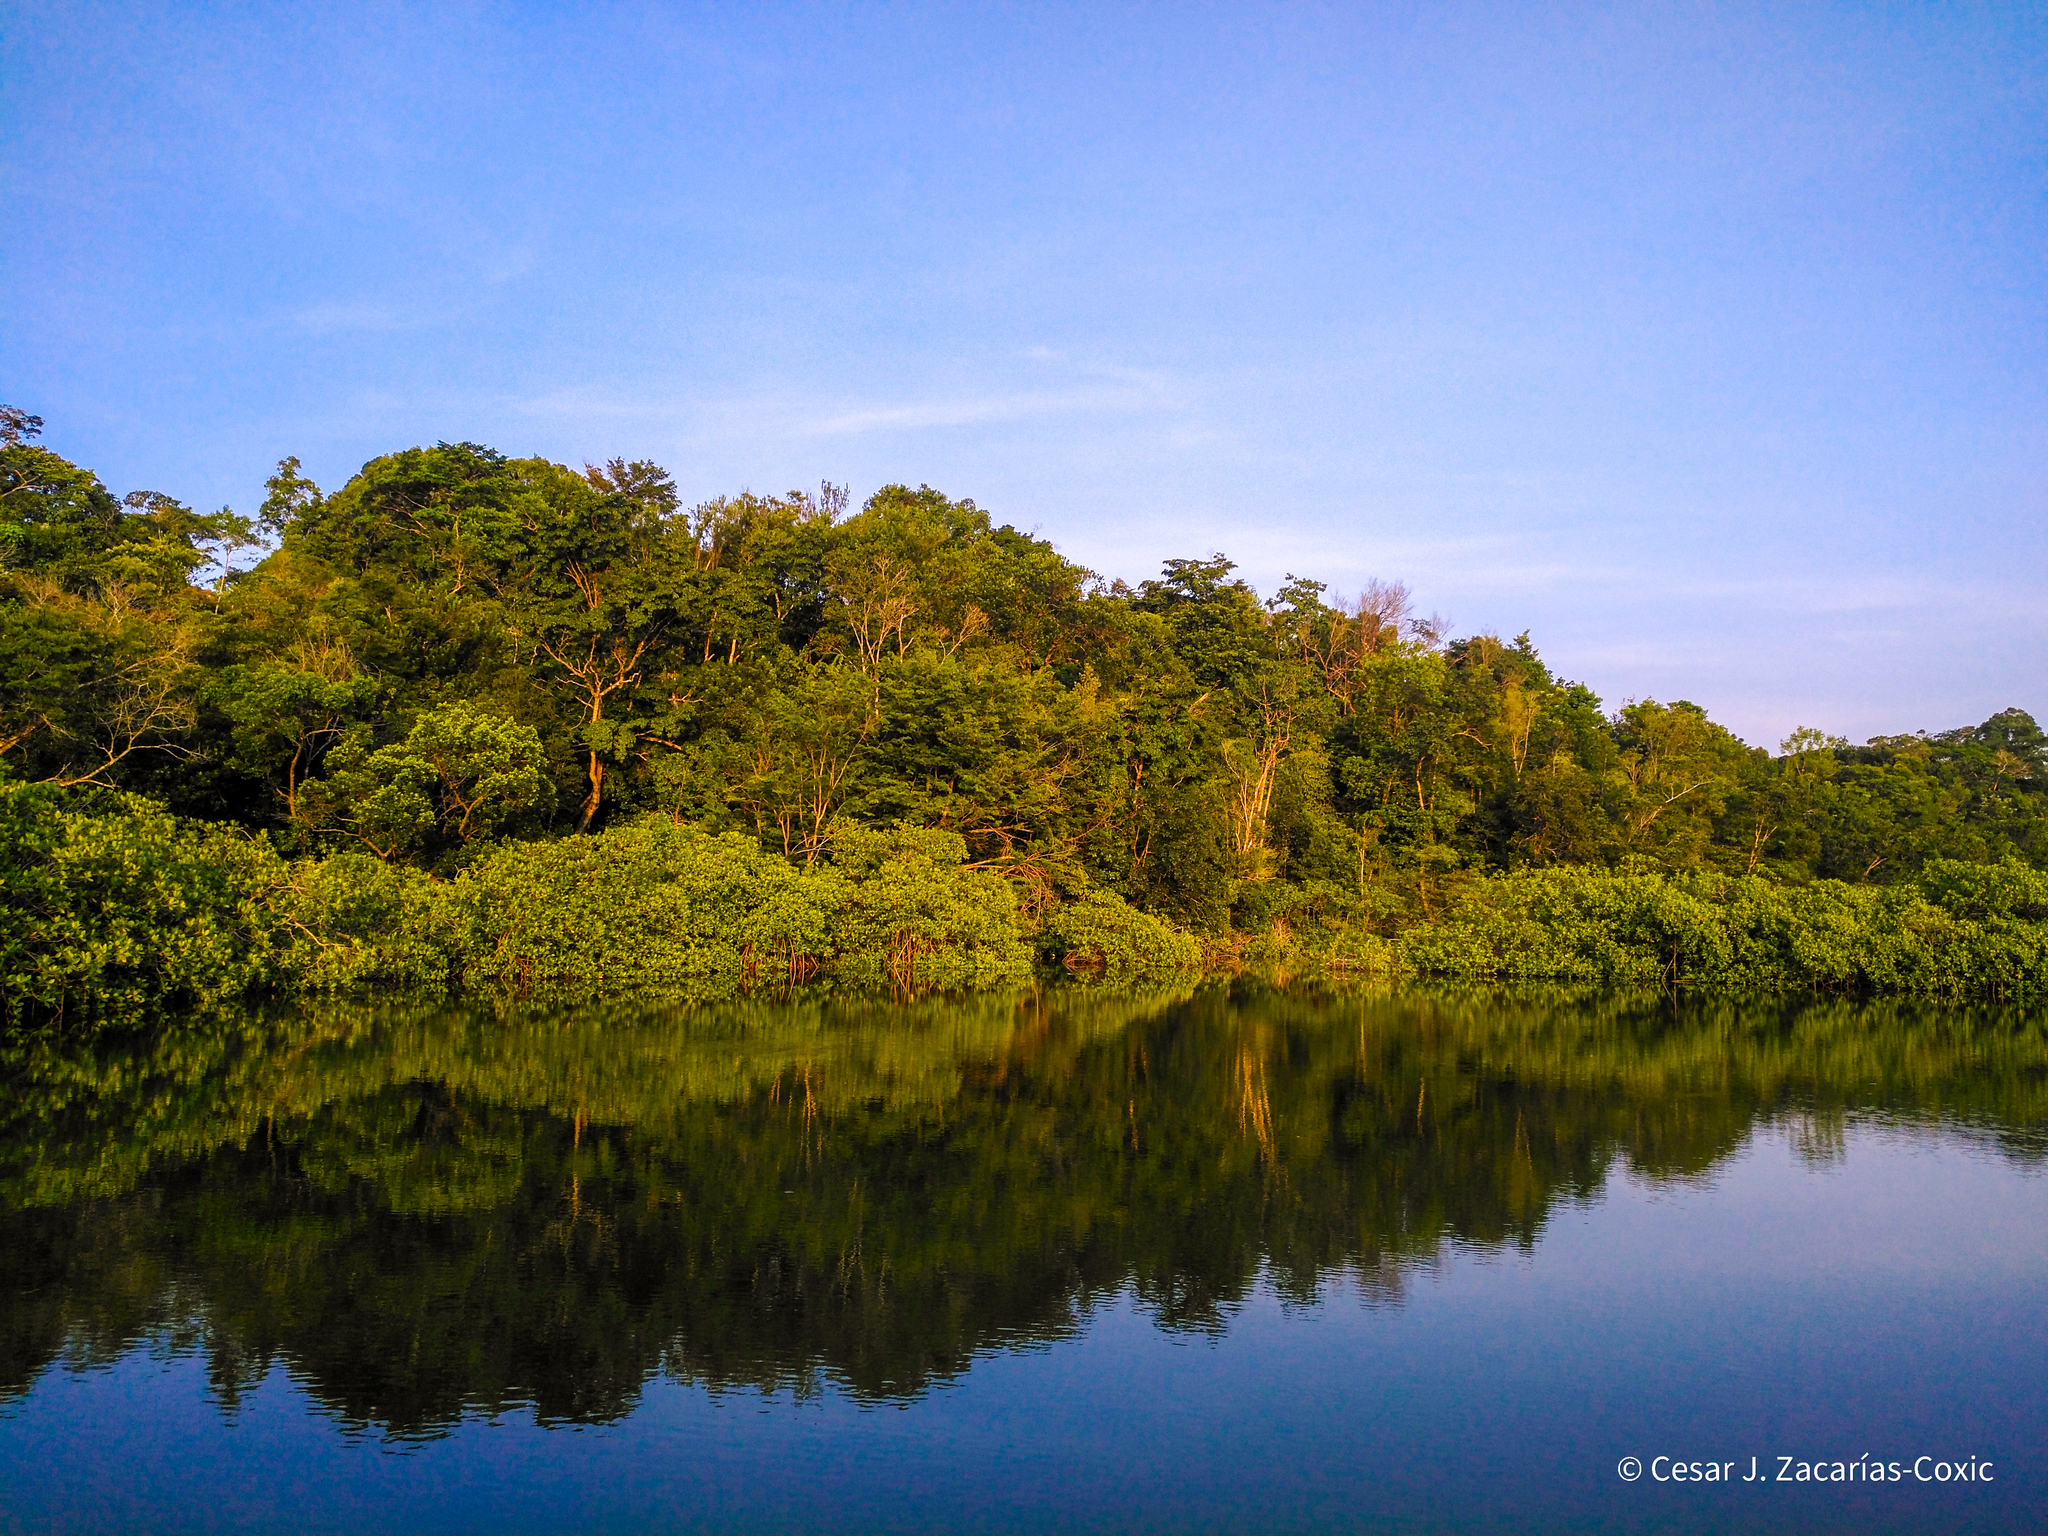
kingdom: Plantae
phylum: Tracheophyta
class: Magnoliopsida
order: Malpighiales
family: Rhizophoraceae
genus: Rhizophora
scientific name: Rhizophora mangle
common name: Red mangrove
